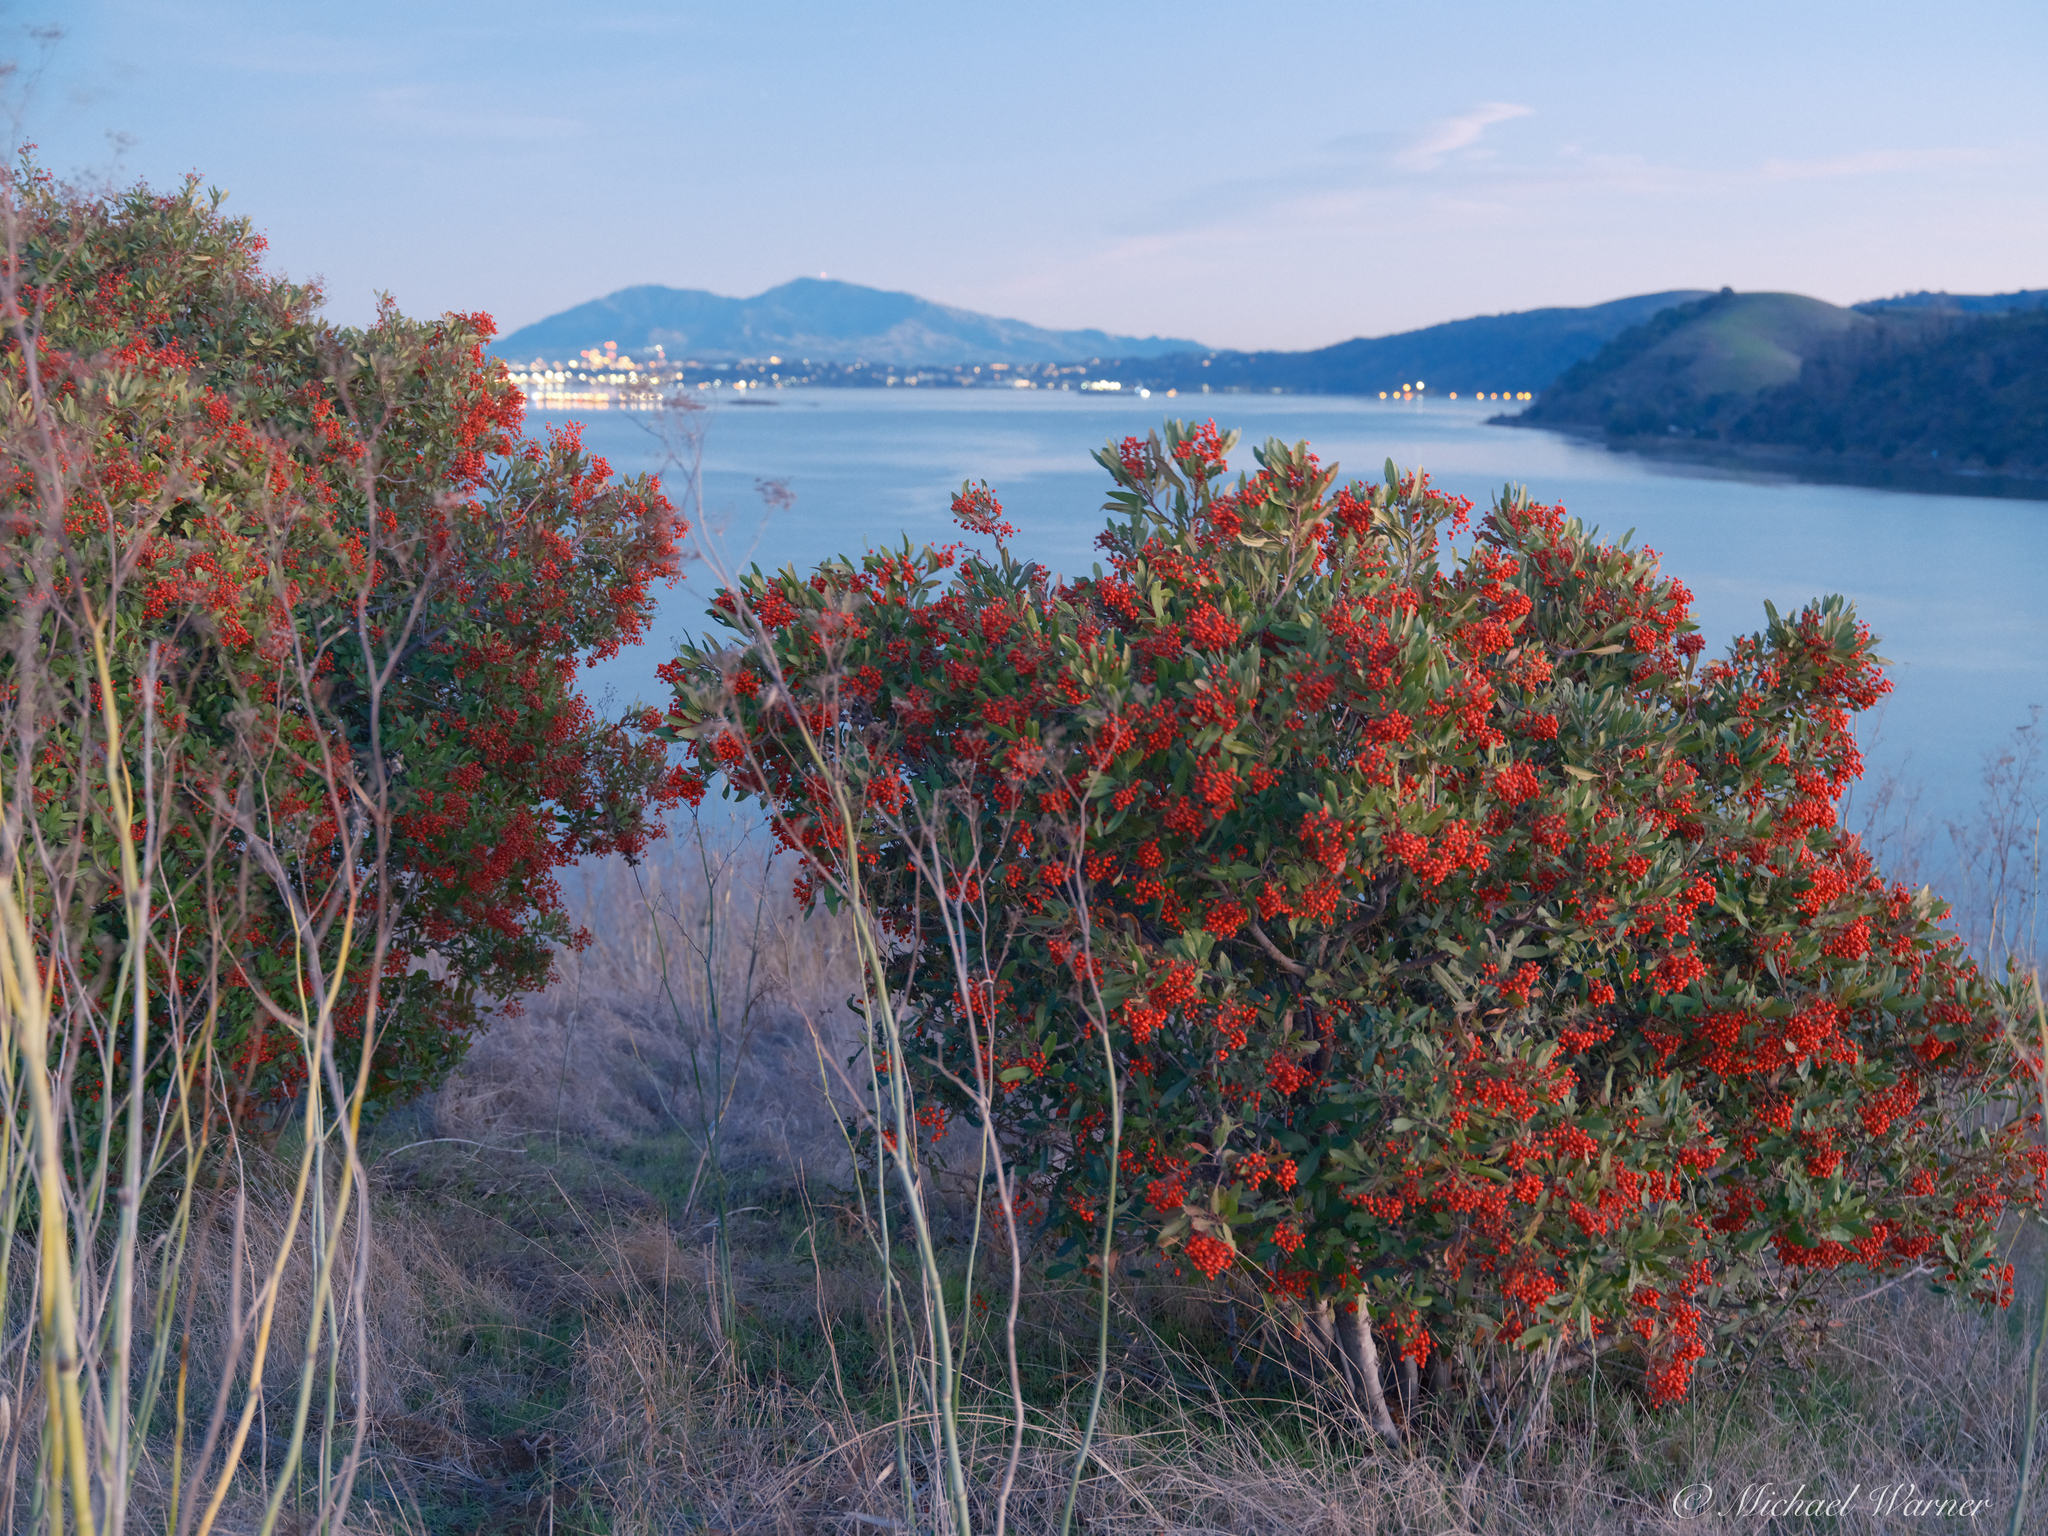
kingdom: Plantae
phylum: Tracheophyta
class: Magnoliopsida
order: Rosales
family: Rosaceae
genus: Heteromeles
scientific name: Heteromeles arbutifolia
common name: California-holly
